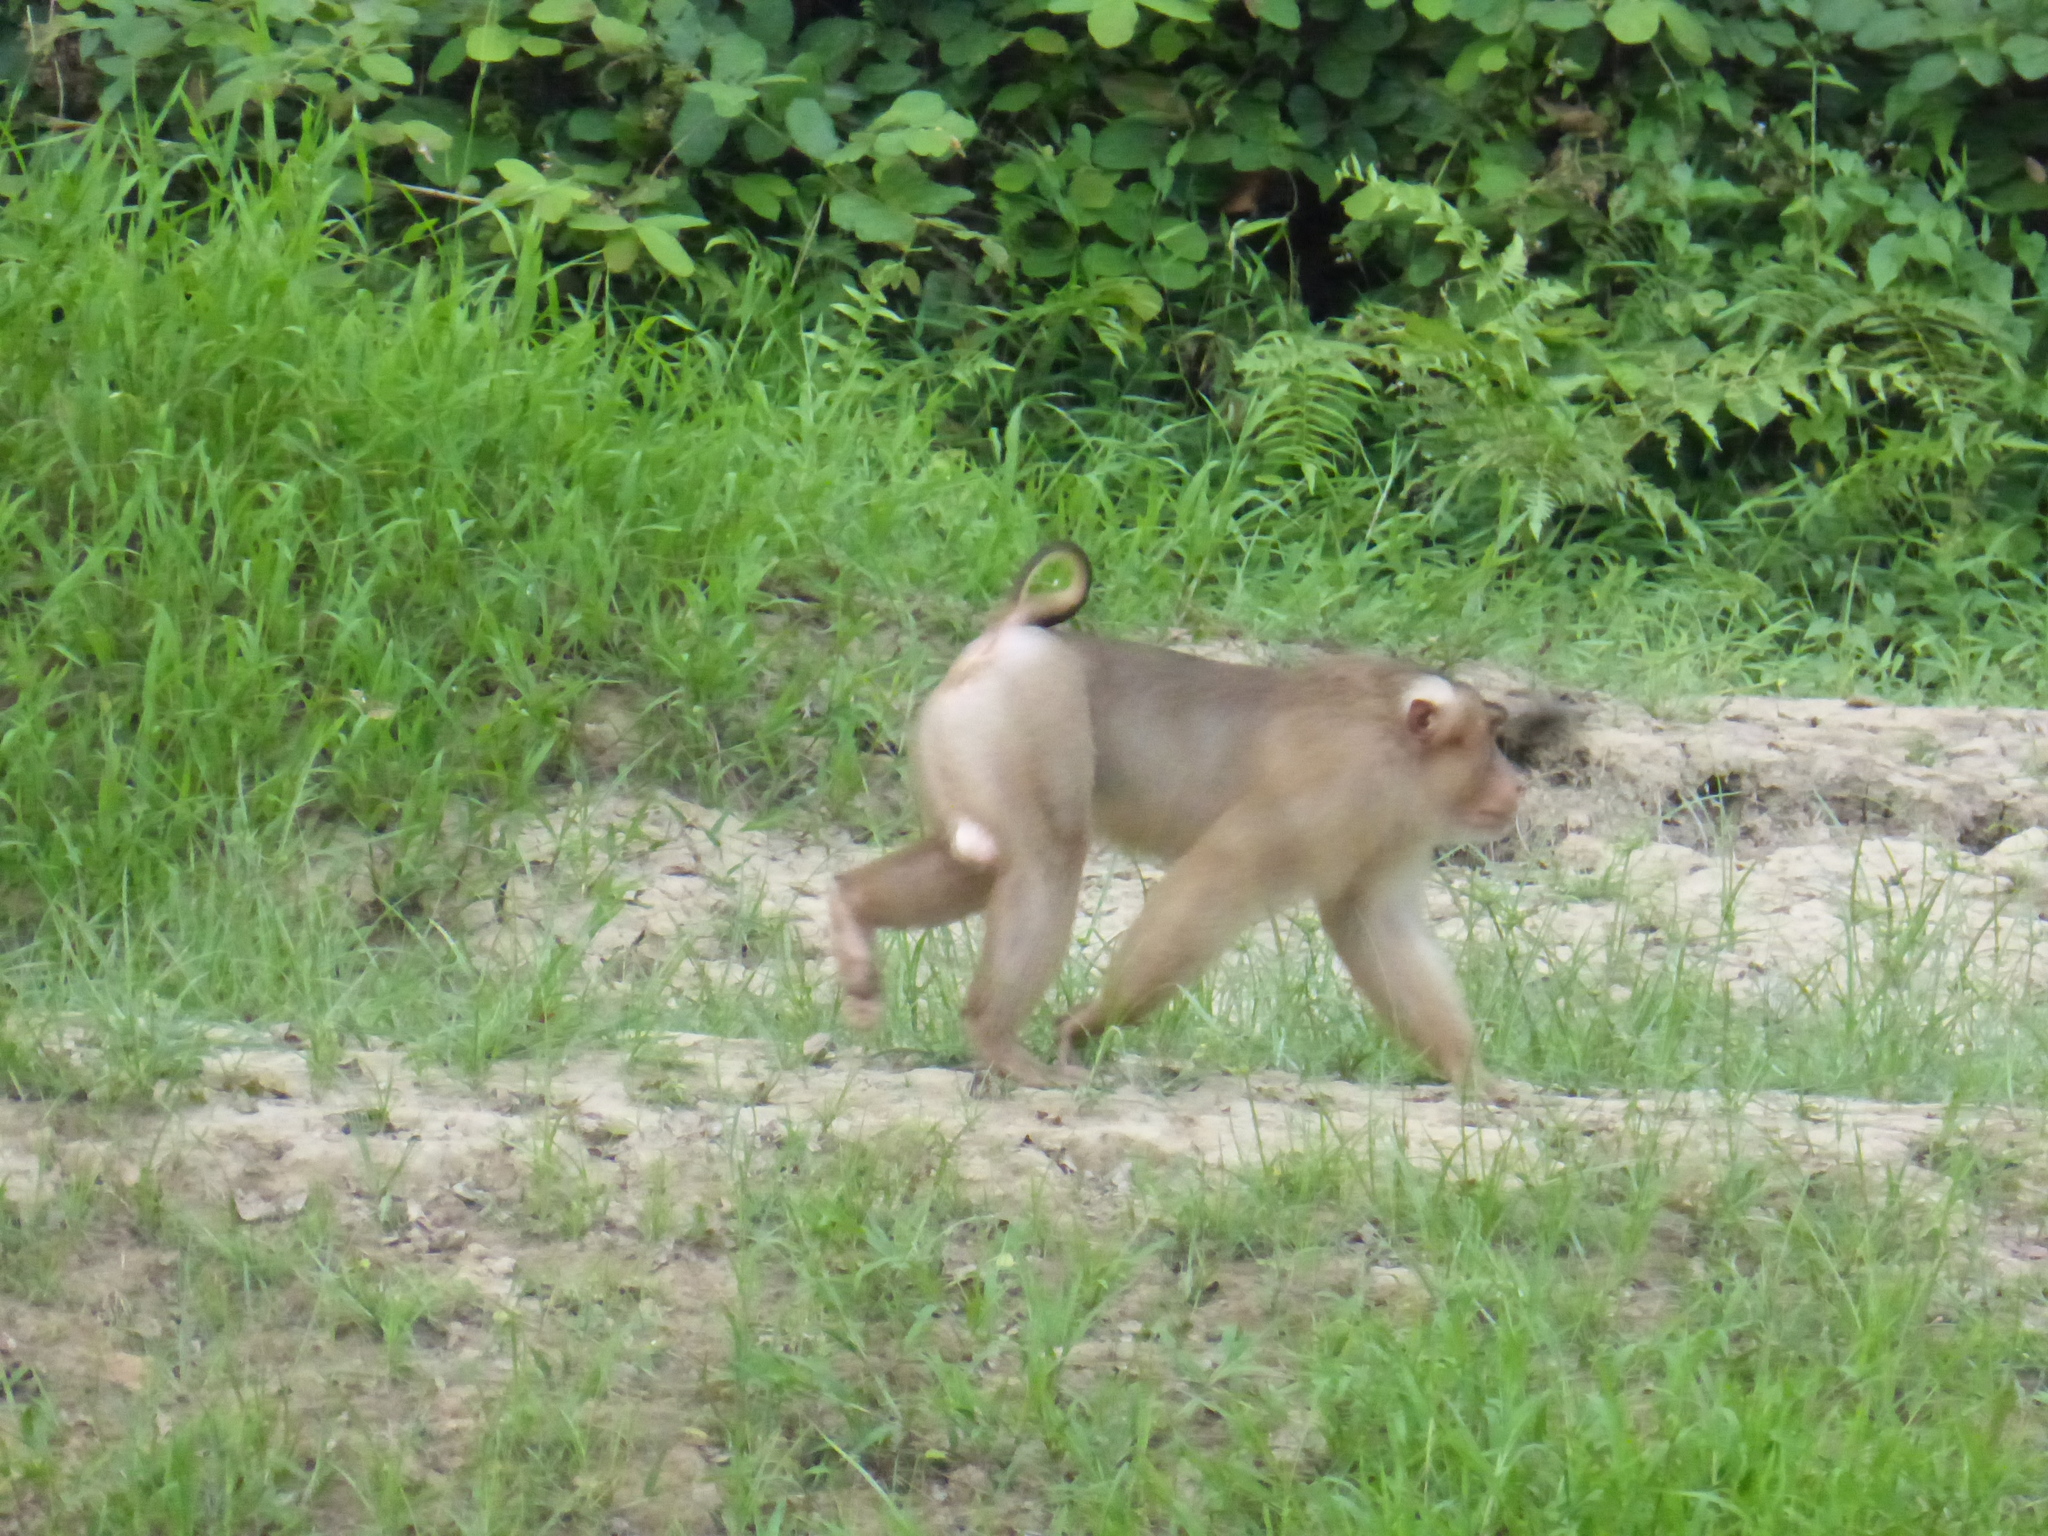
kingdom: Animalia
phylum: Chordata
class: Mammalia
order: Primates
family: Cercopithecidae
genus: Macaca
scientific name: Macaca nemestrina
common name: Southern pig-tailed macaque
